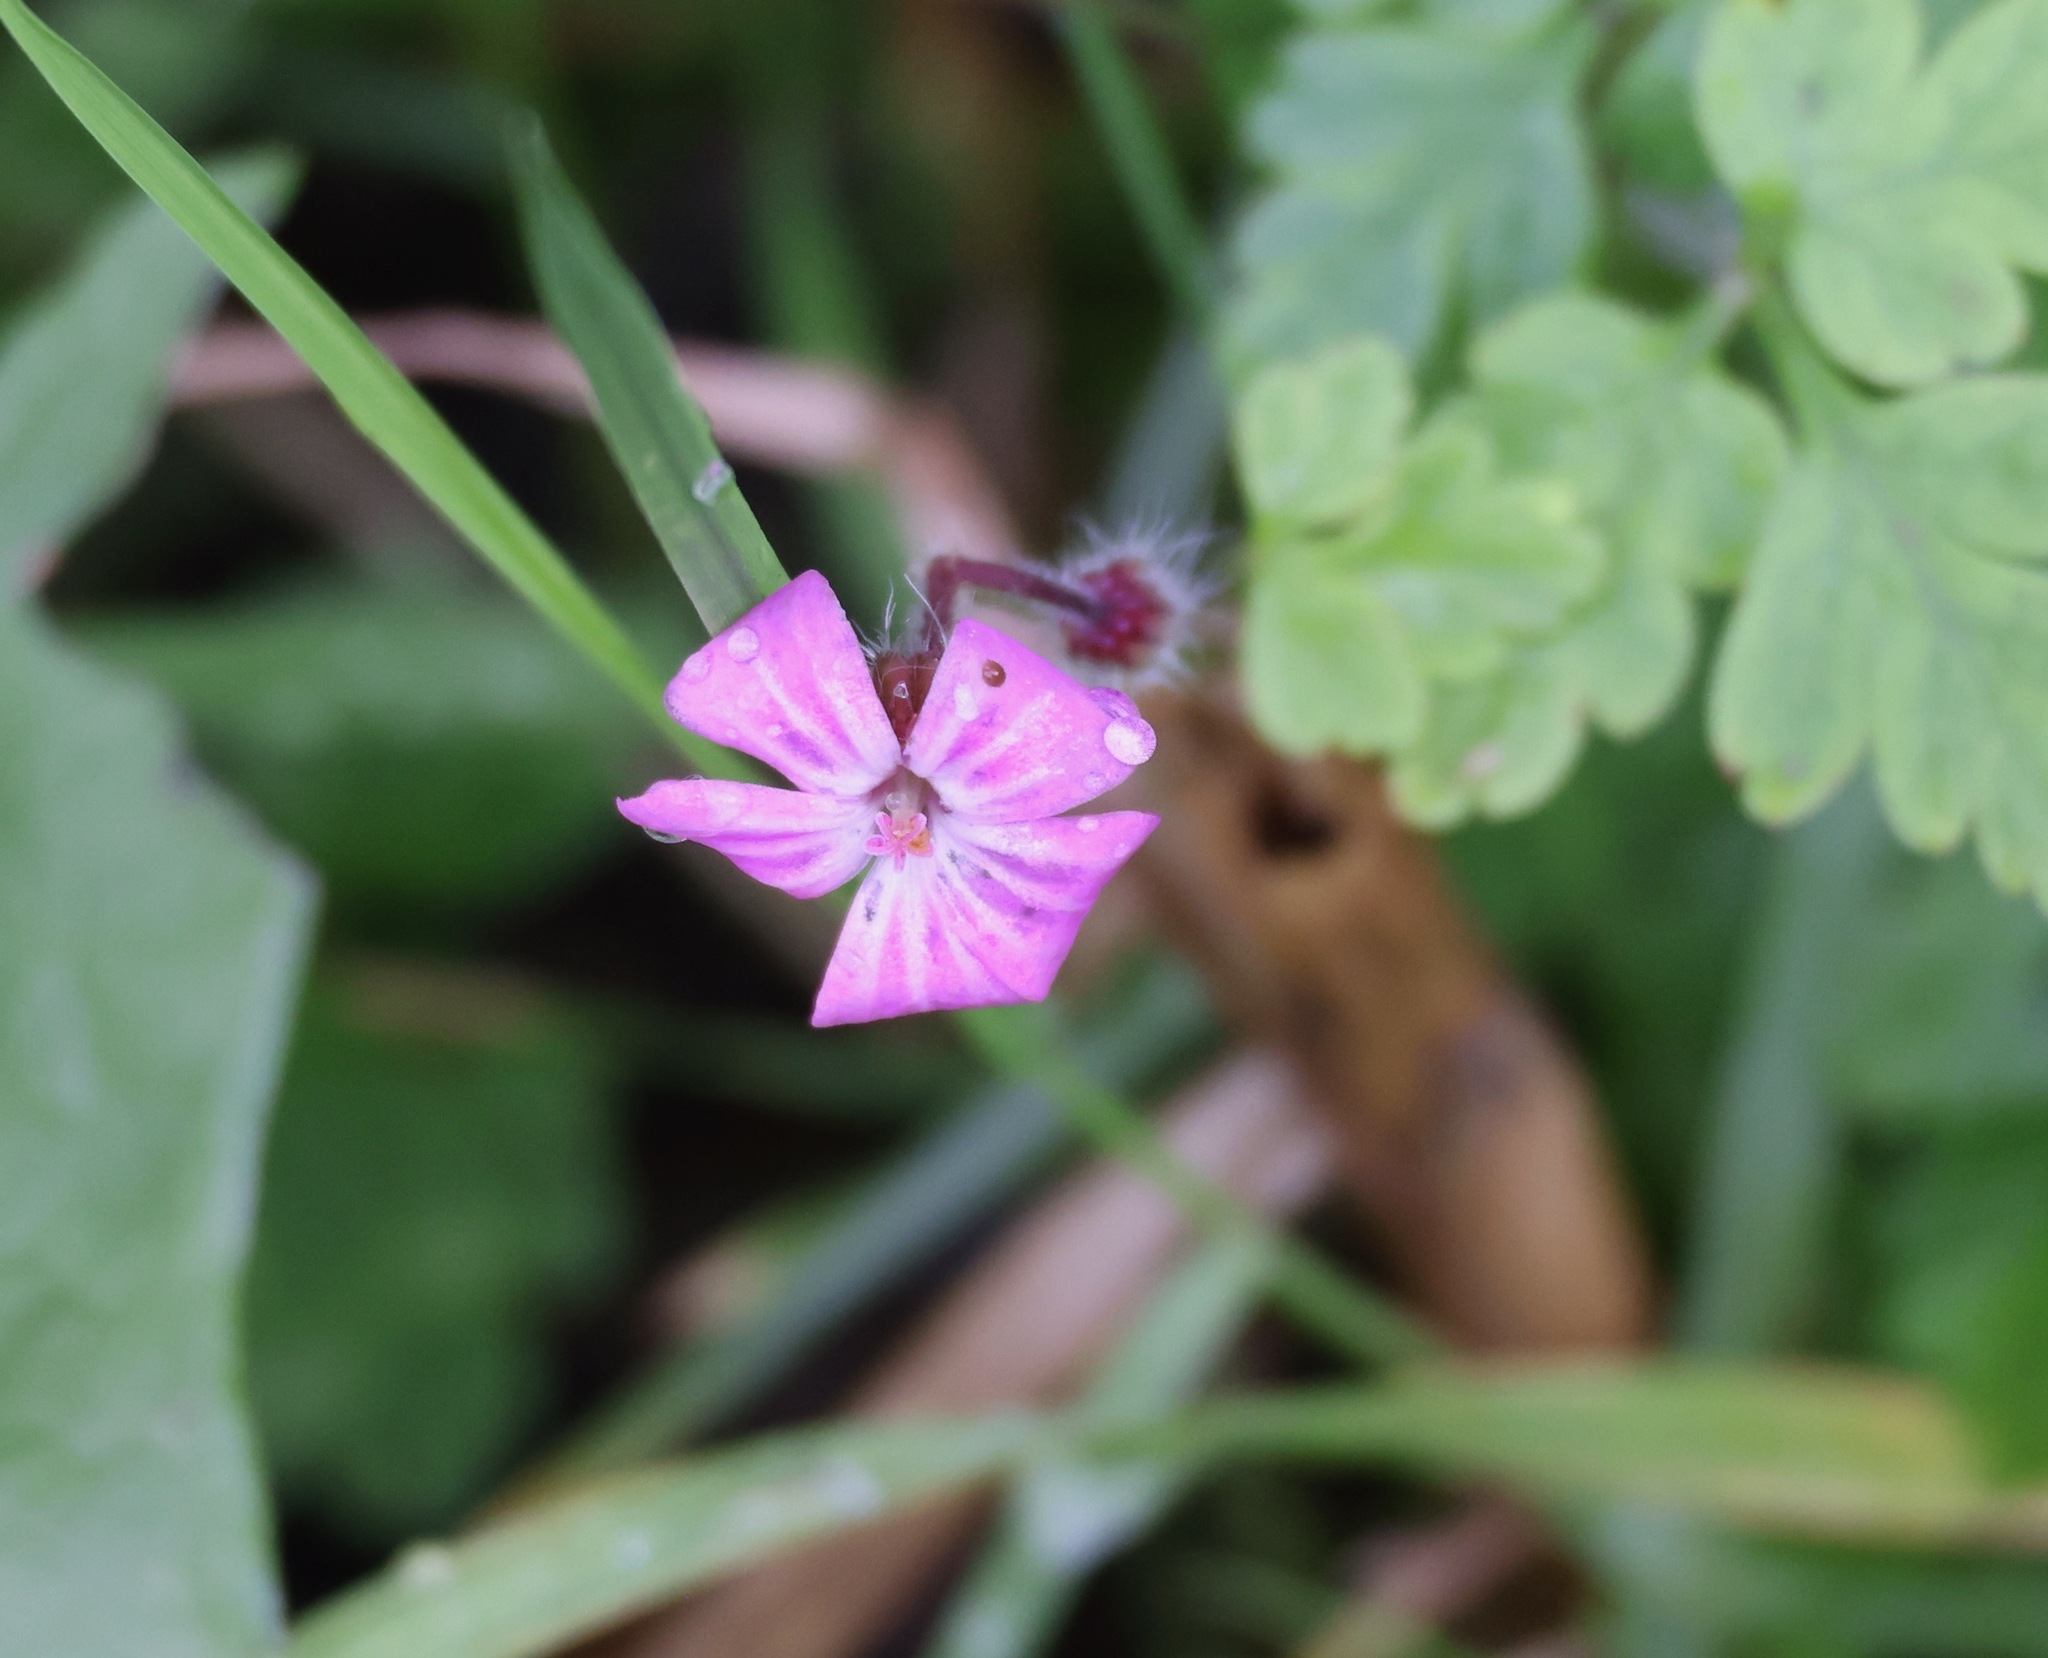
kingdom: Plantae
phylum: Tracheophyta
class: Magnoliopsida
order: Geraniales
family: Geraniaceae
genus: Geranium
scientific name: Geranium robertianum
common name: Herb-robert
